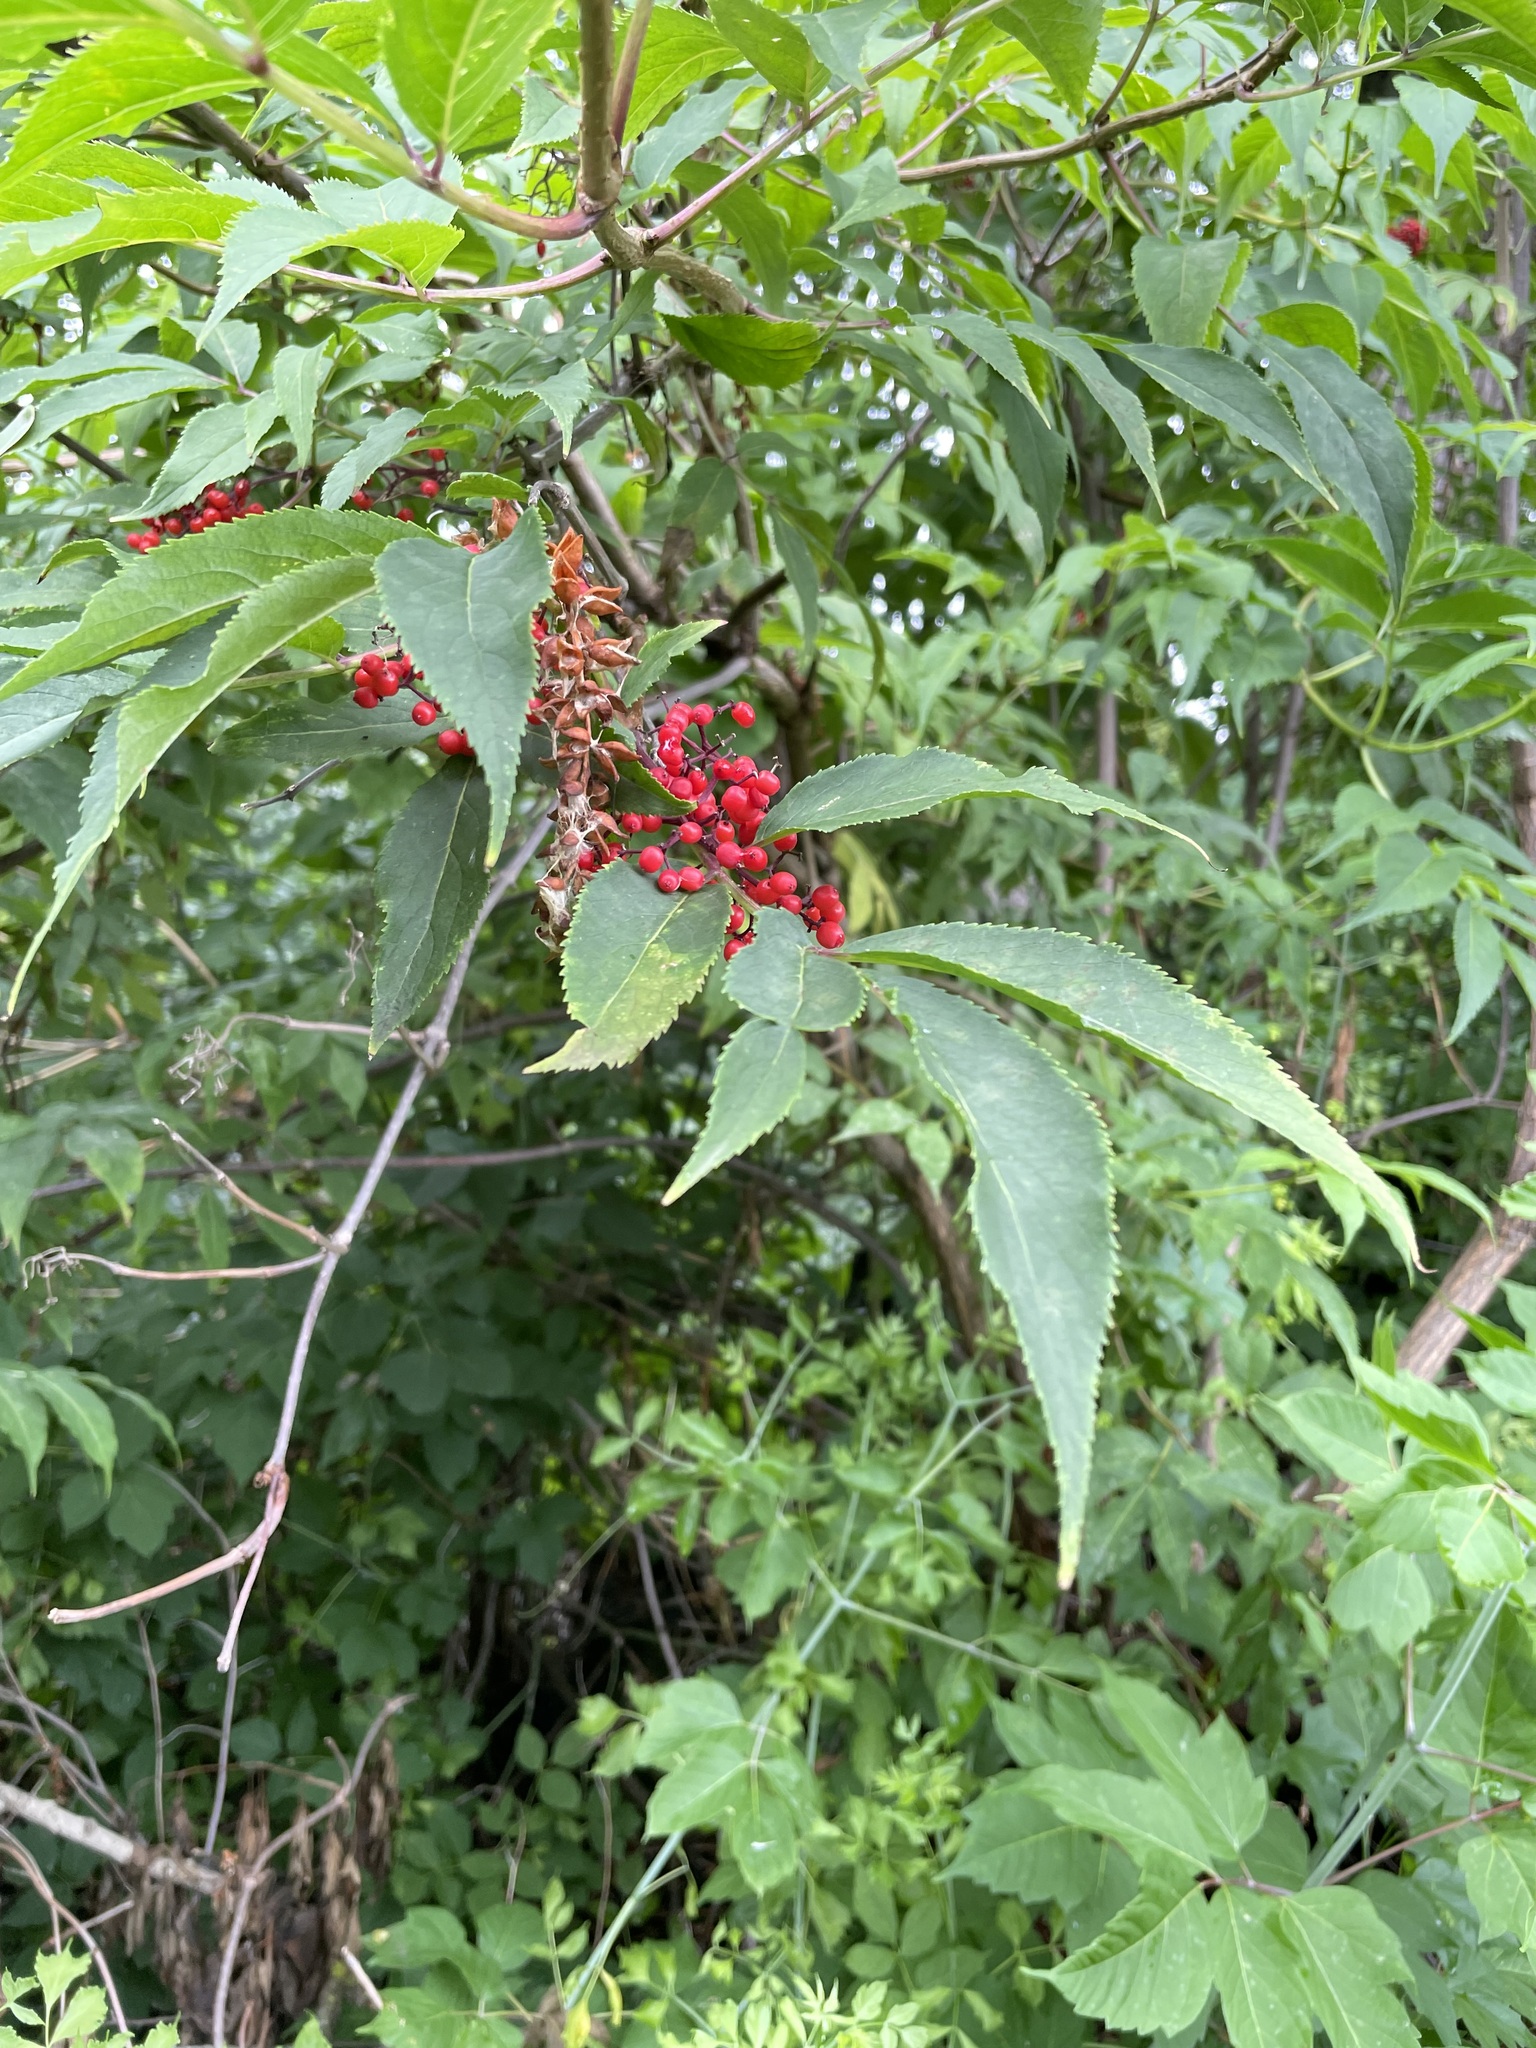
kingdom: Plantae
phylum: Tracheophyta
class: Magnoliopsida
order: Dipsacales
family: Viburnaceae
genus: Sambucus
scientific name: Sambucus racemosa
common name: Red-berried elder
